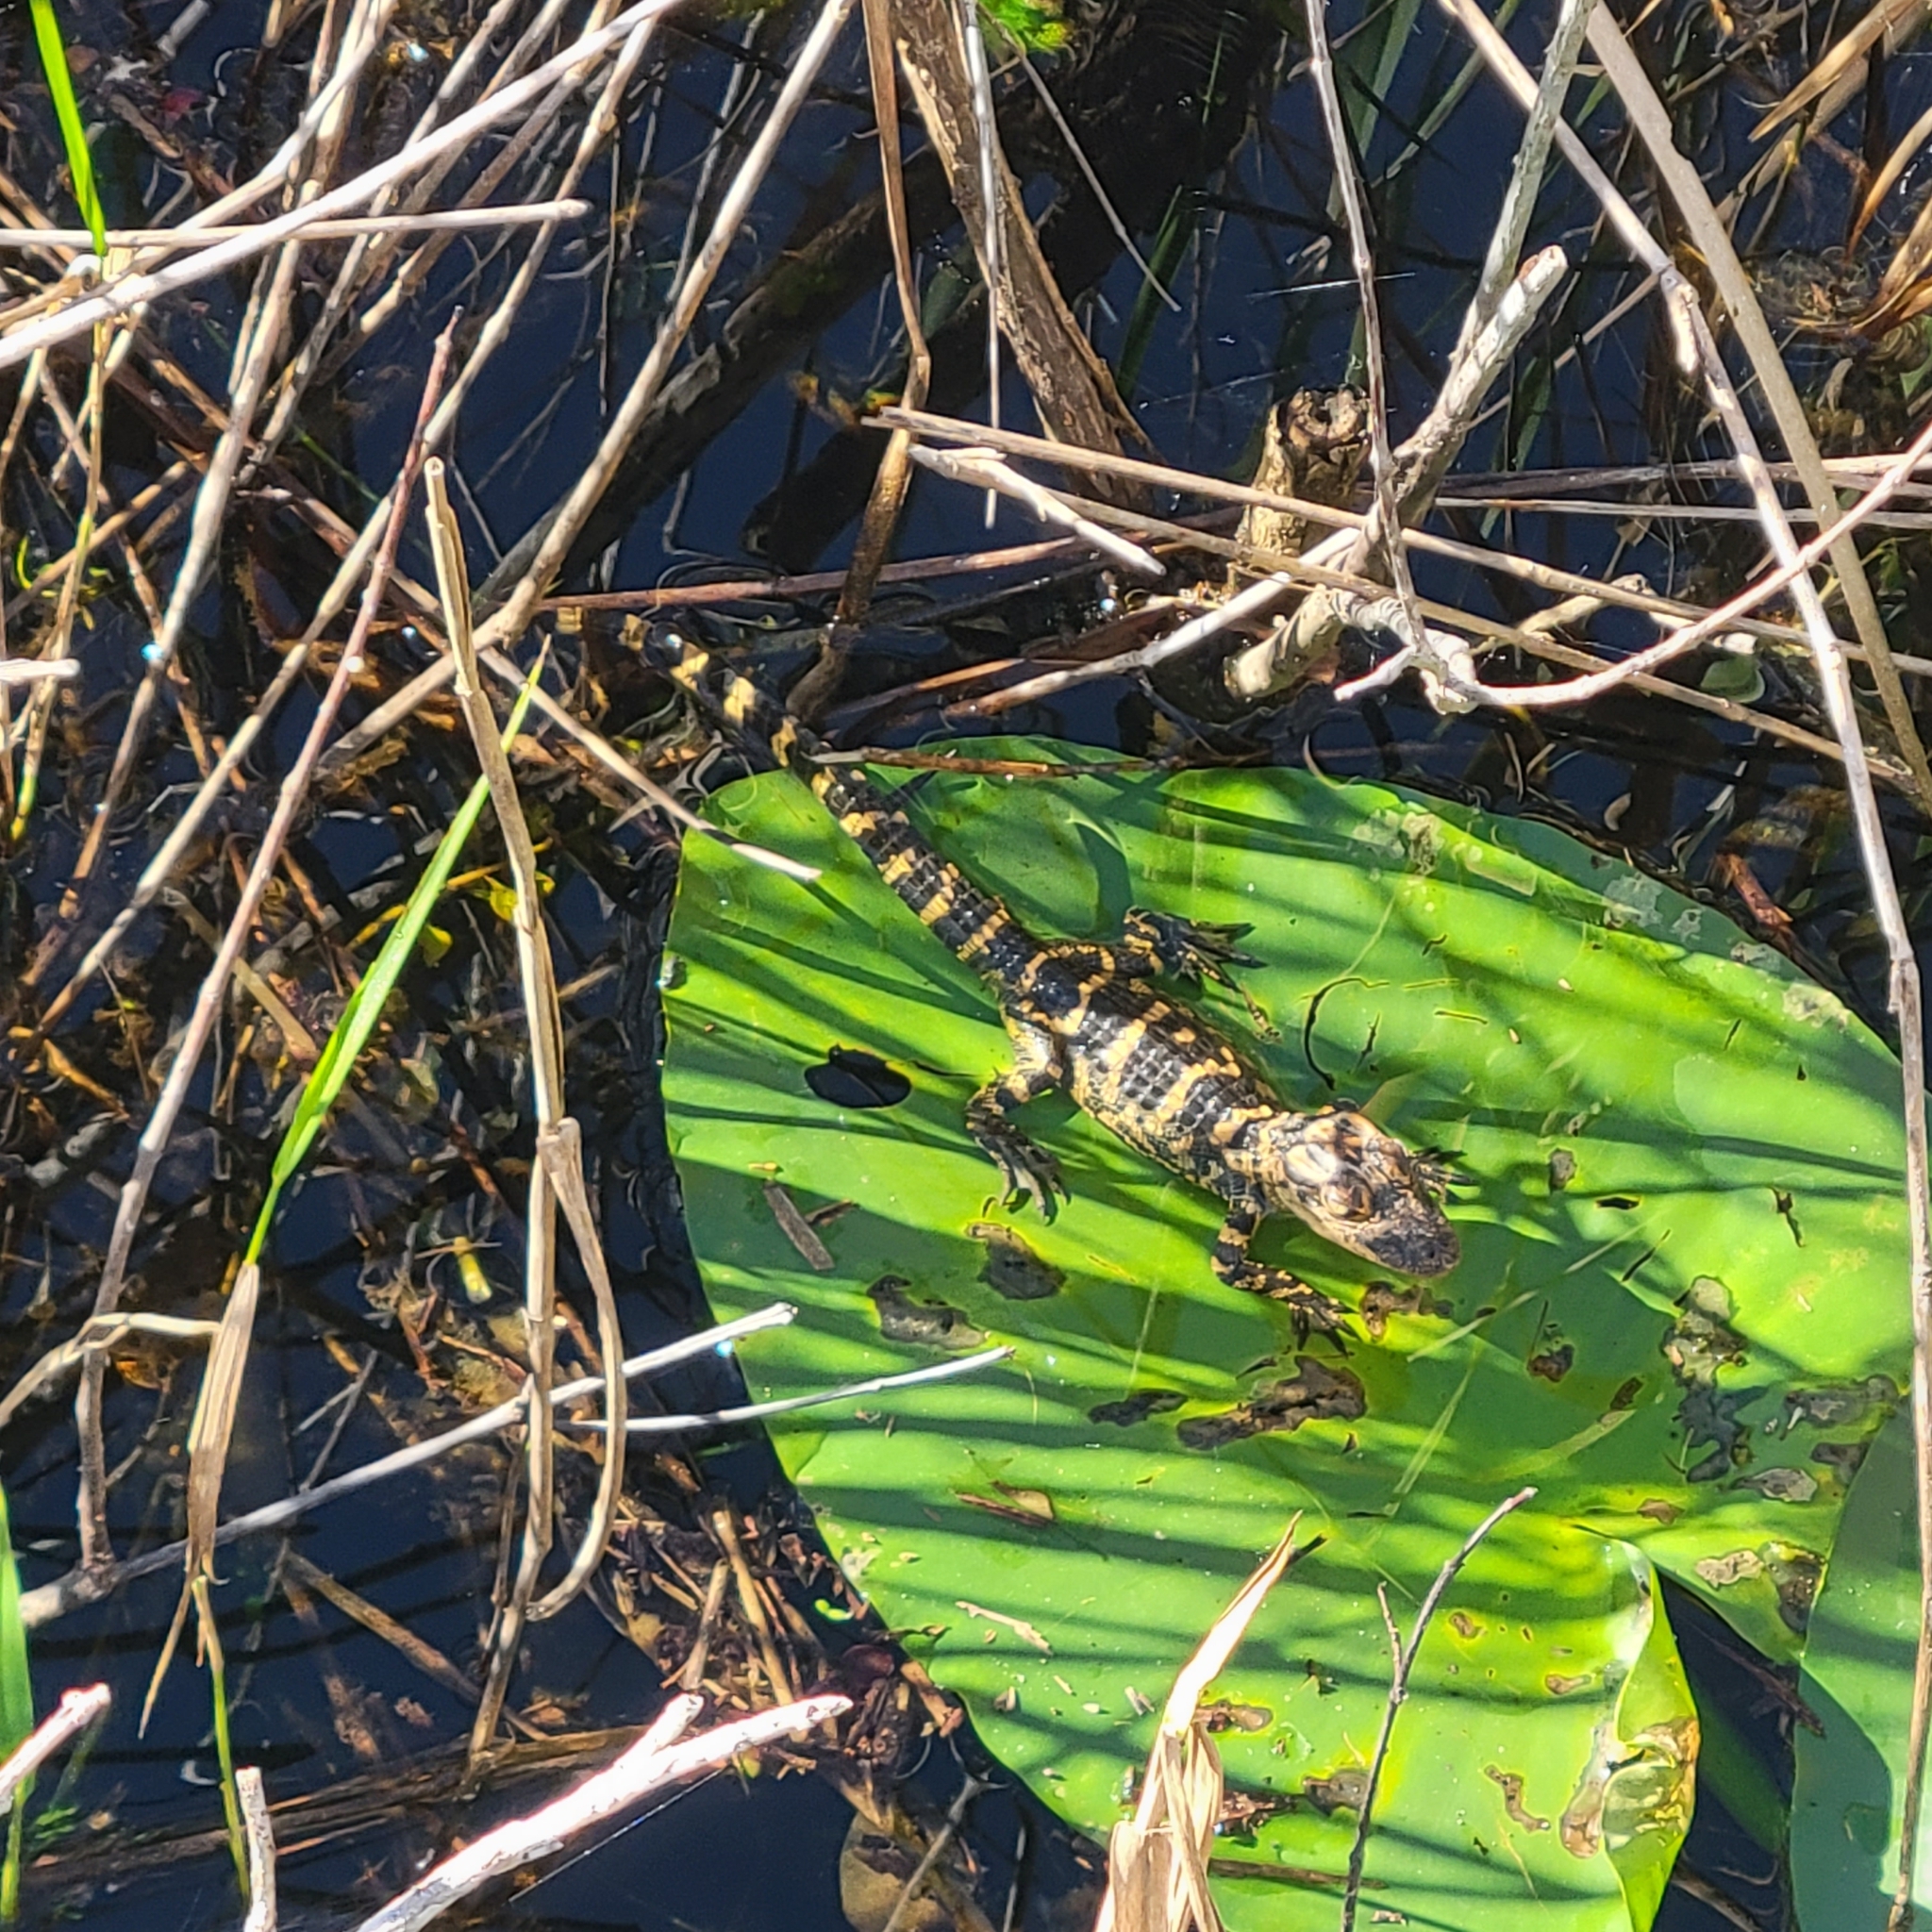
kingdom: Animalia
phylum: Chordata
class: Crocodylia
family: Alligatoridae
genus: Alligator
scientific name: Alligator mississippiensis
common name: American alligator
